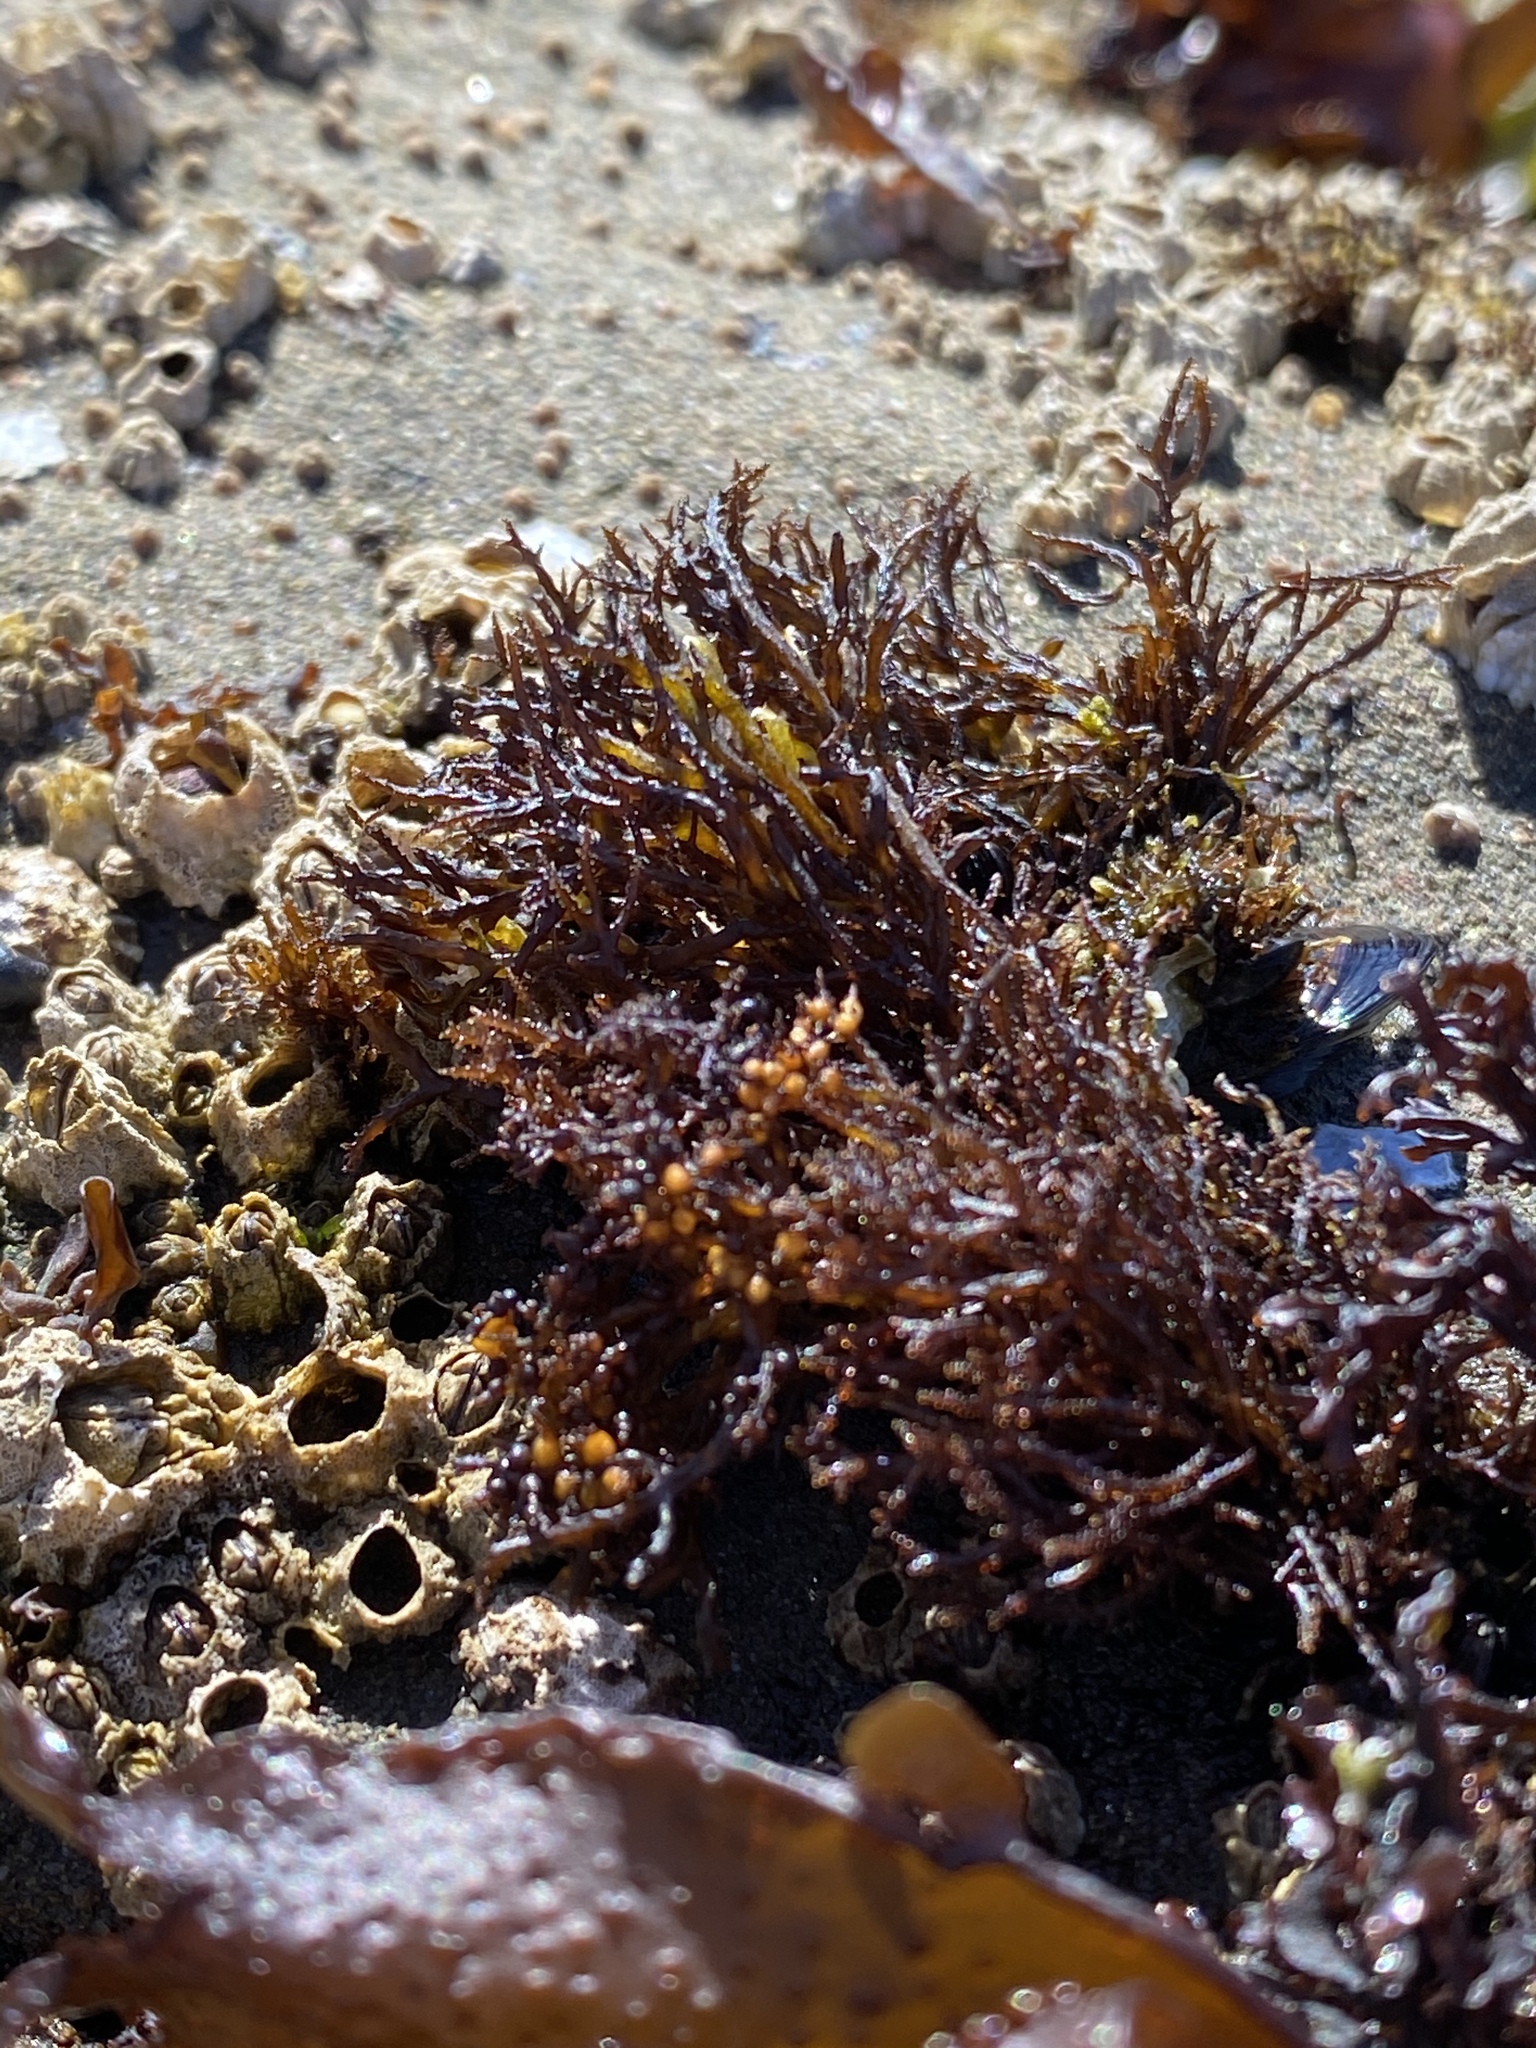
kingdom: Plantae
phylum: Rhodophyta
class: Florideophyceae
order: Gigartinales
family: Endocladiaceae
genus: Endocladia
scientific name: Endocladia muricata
